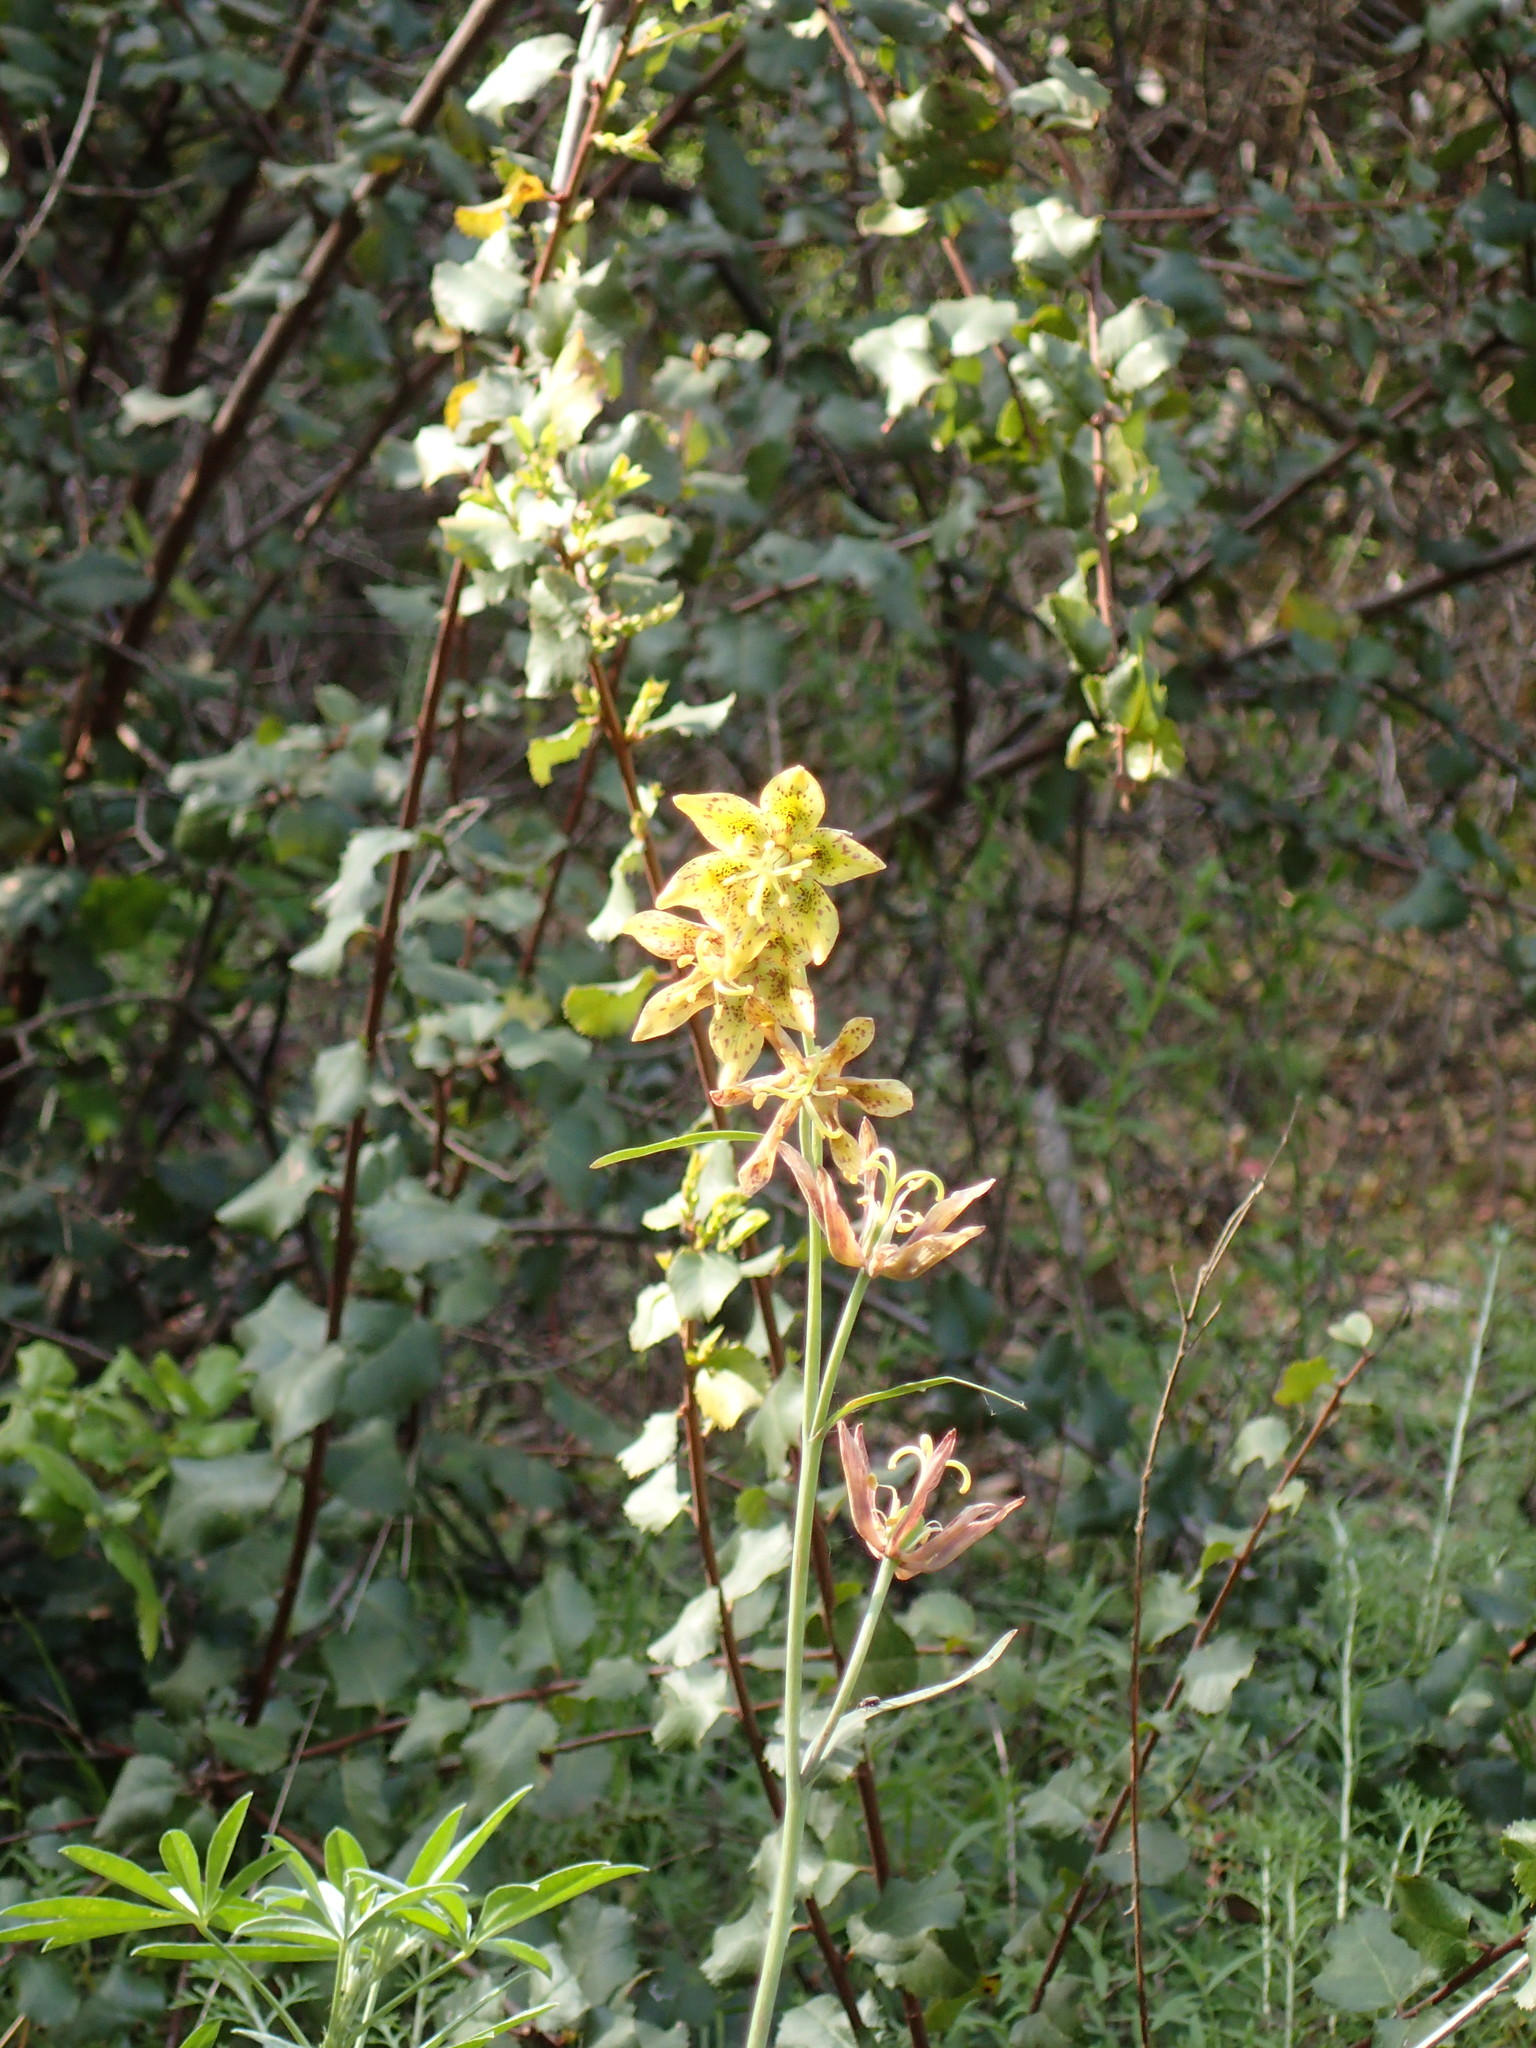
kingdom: Plantae
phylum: Tracheophyta
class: Liliopsida
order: Liliales
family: Liliaceae
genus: Fritillaria
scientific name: Fritillaria ojaiensis
